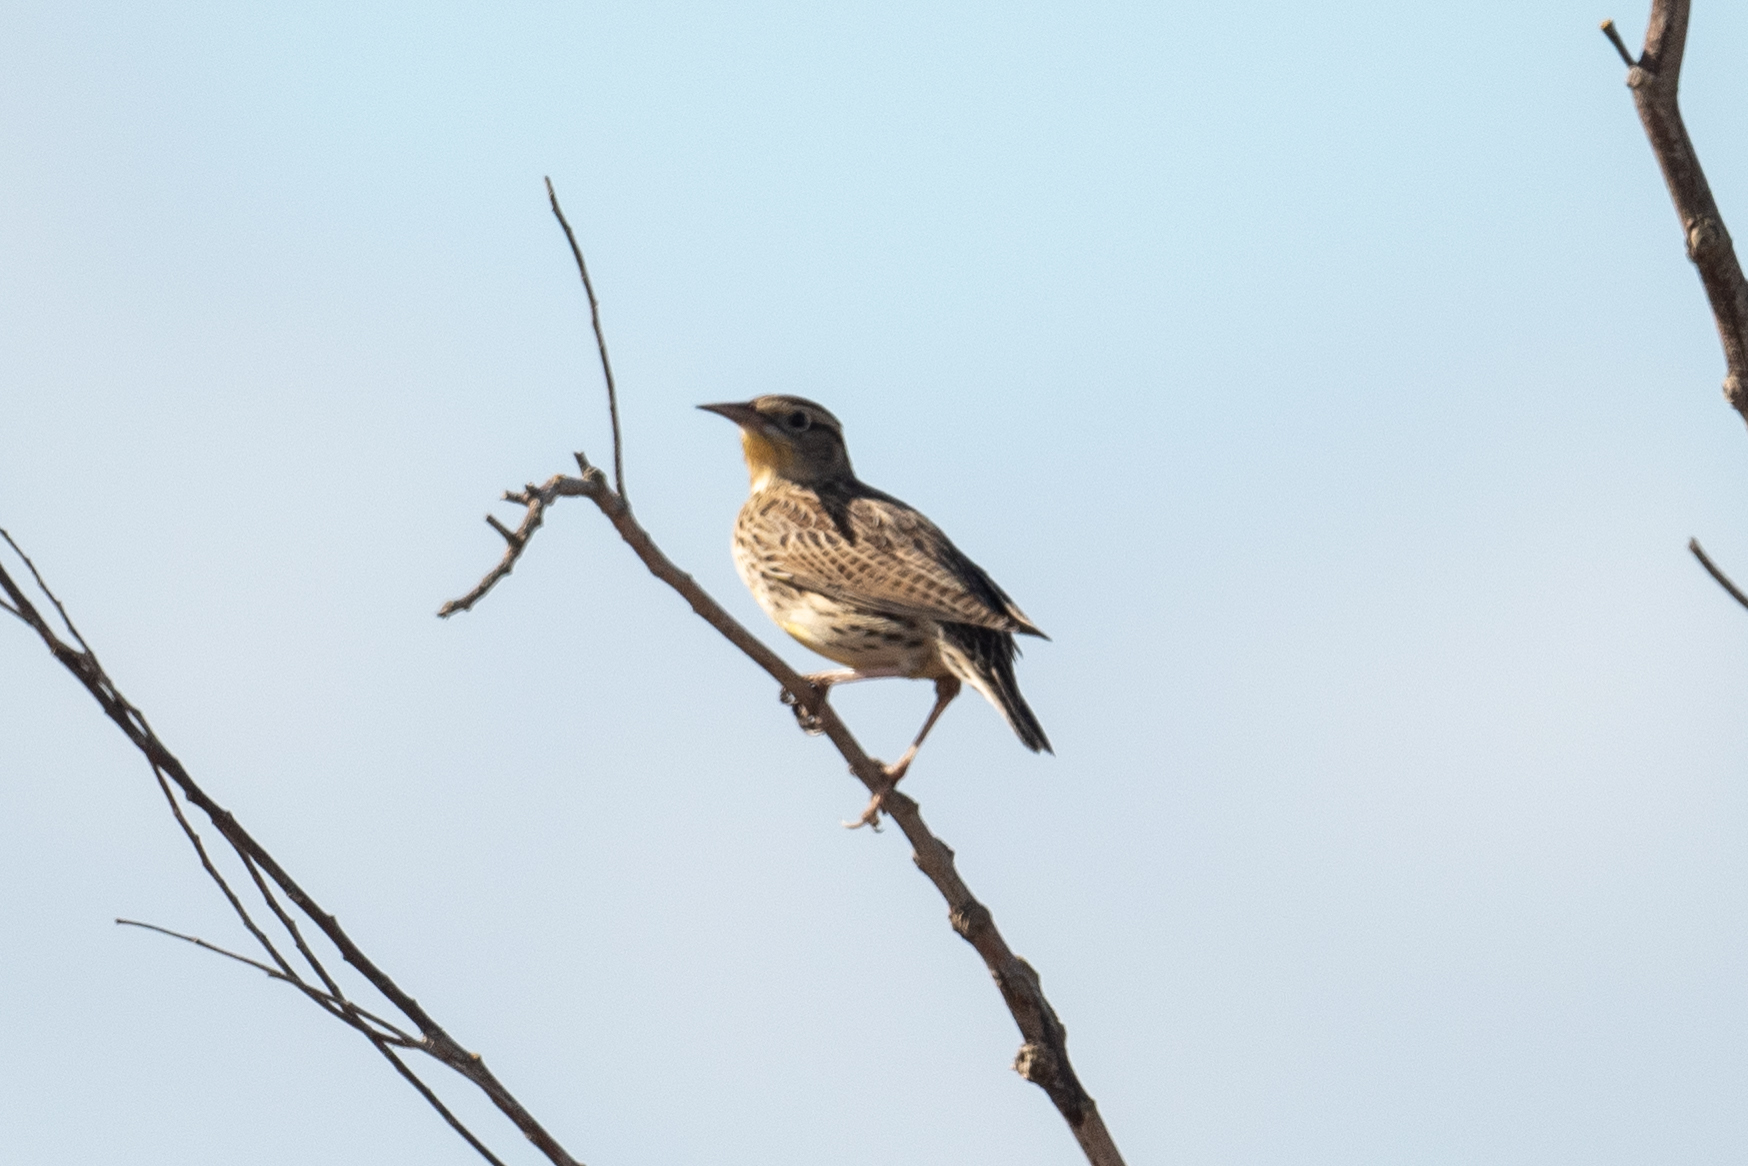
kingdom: Animalia
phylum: Chordata
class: Aves
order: Passeriformes
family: Icteridae
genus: Sturnella
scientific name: Sturnella neglecta
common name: Western meadowlark
